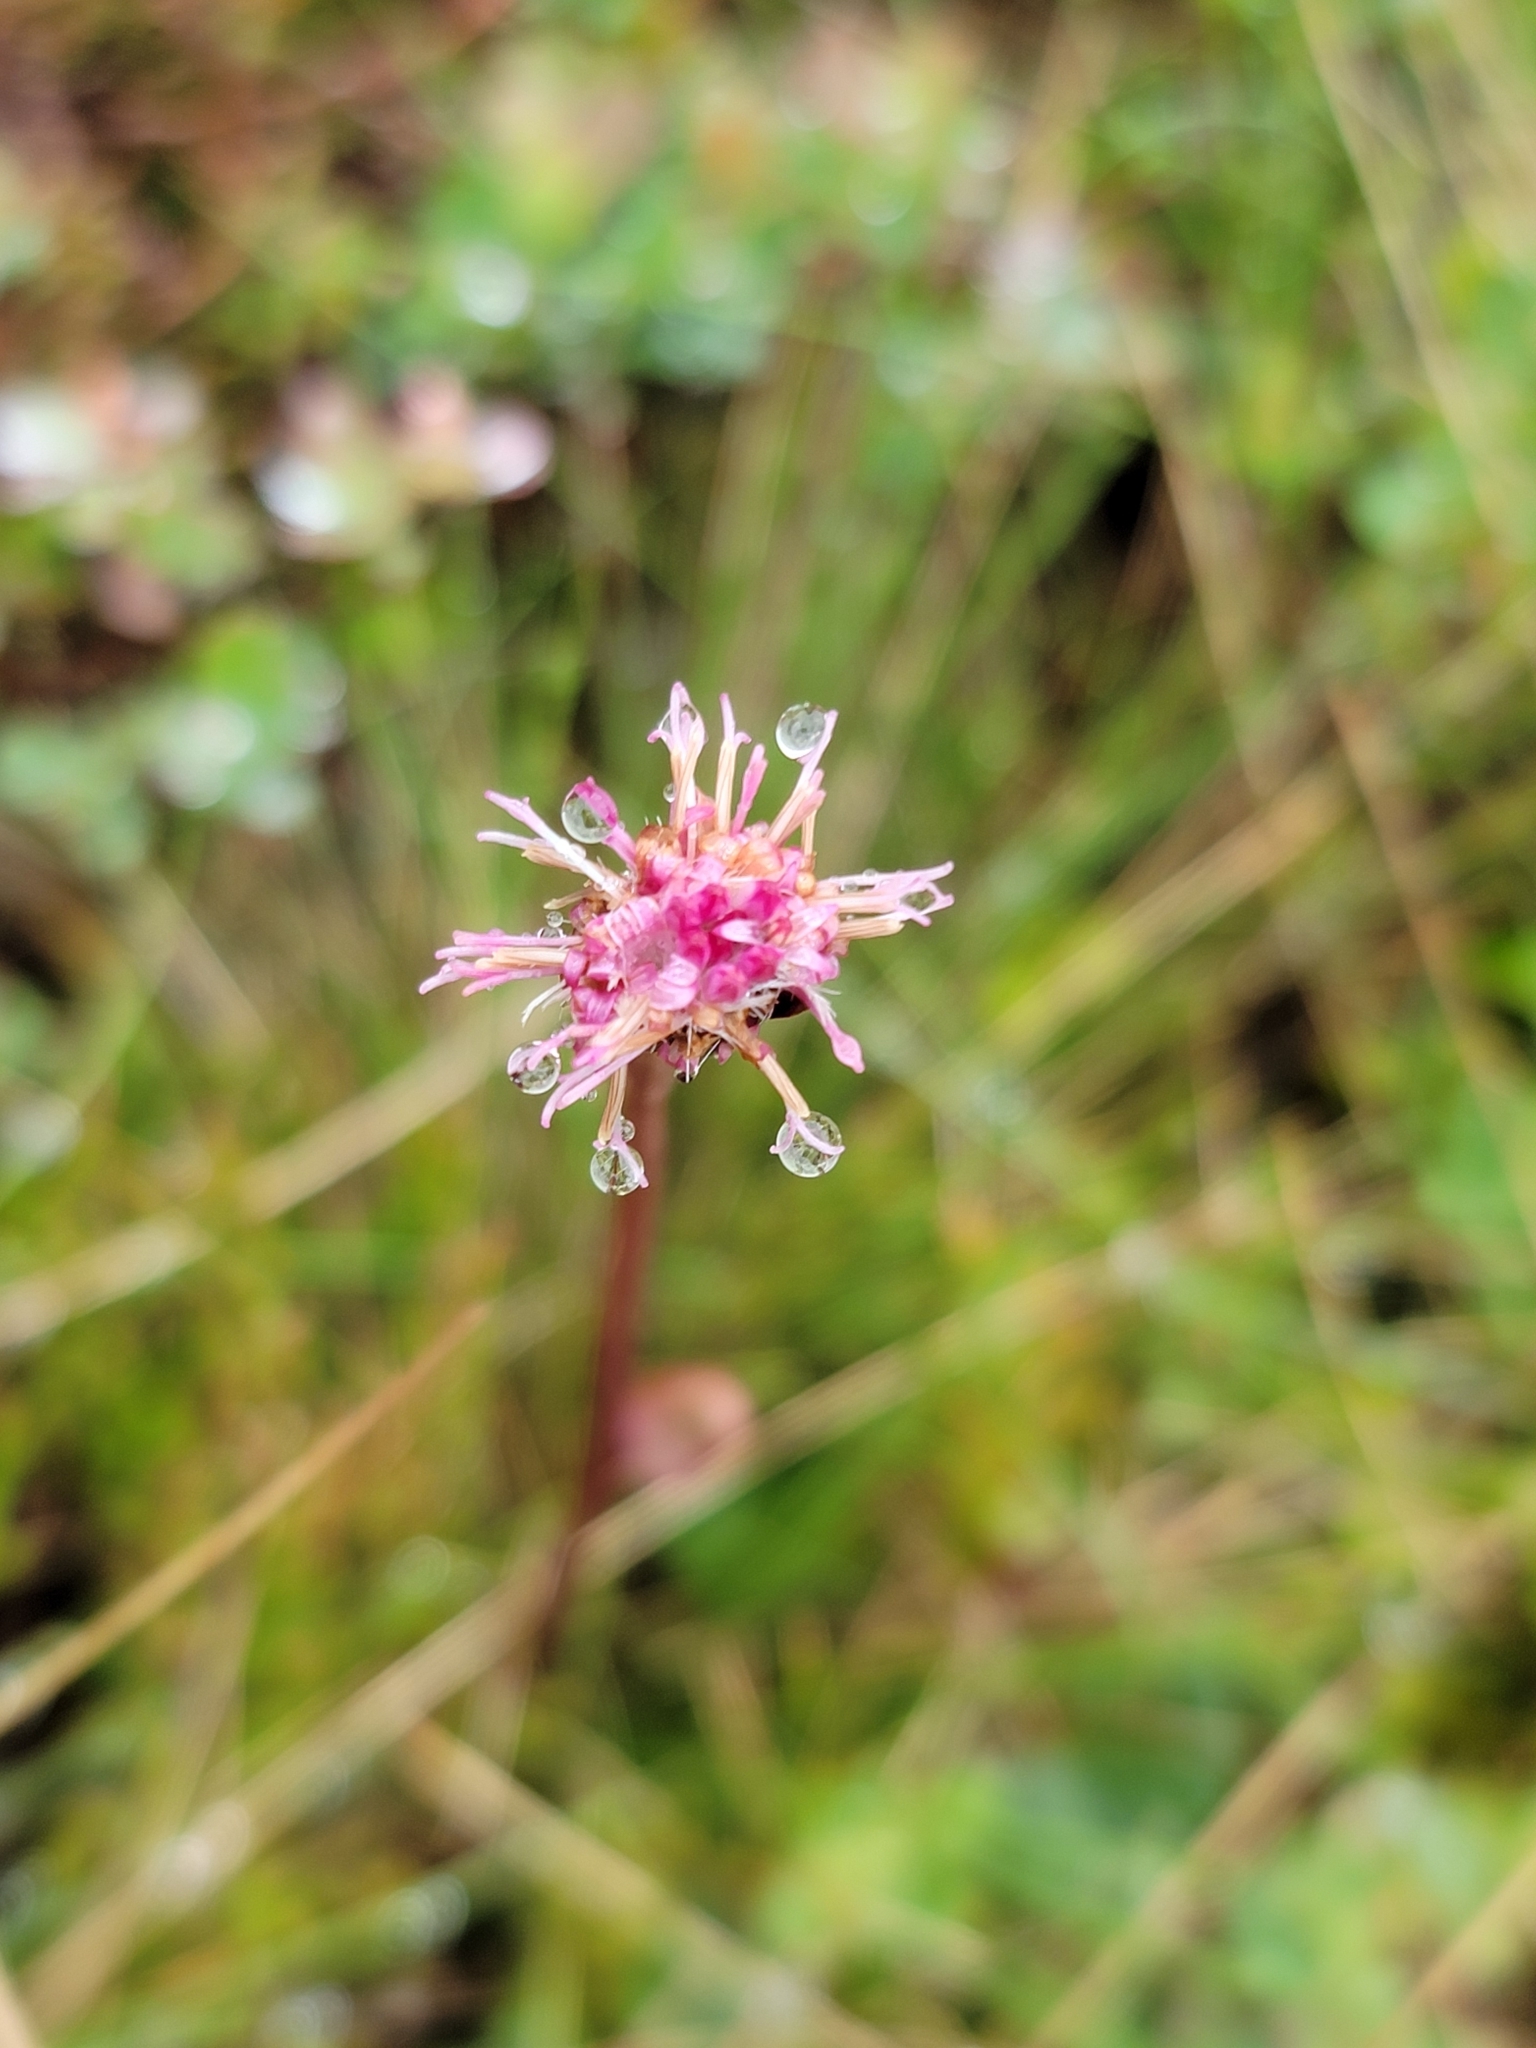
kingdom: Plantae
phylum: Tracheophyta
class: Magnoliopsida
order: Asterales
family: Asteraceae
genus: Homogyne
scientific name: Homogyne alpina
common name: Purple colt's-foot
